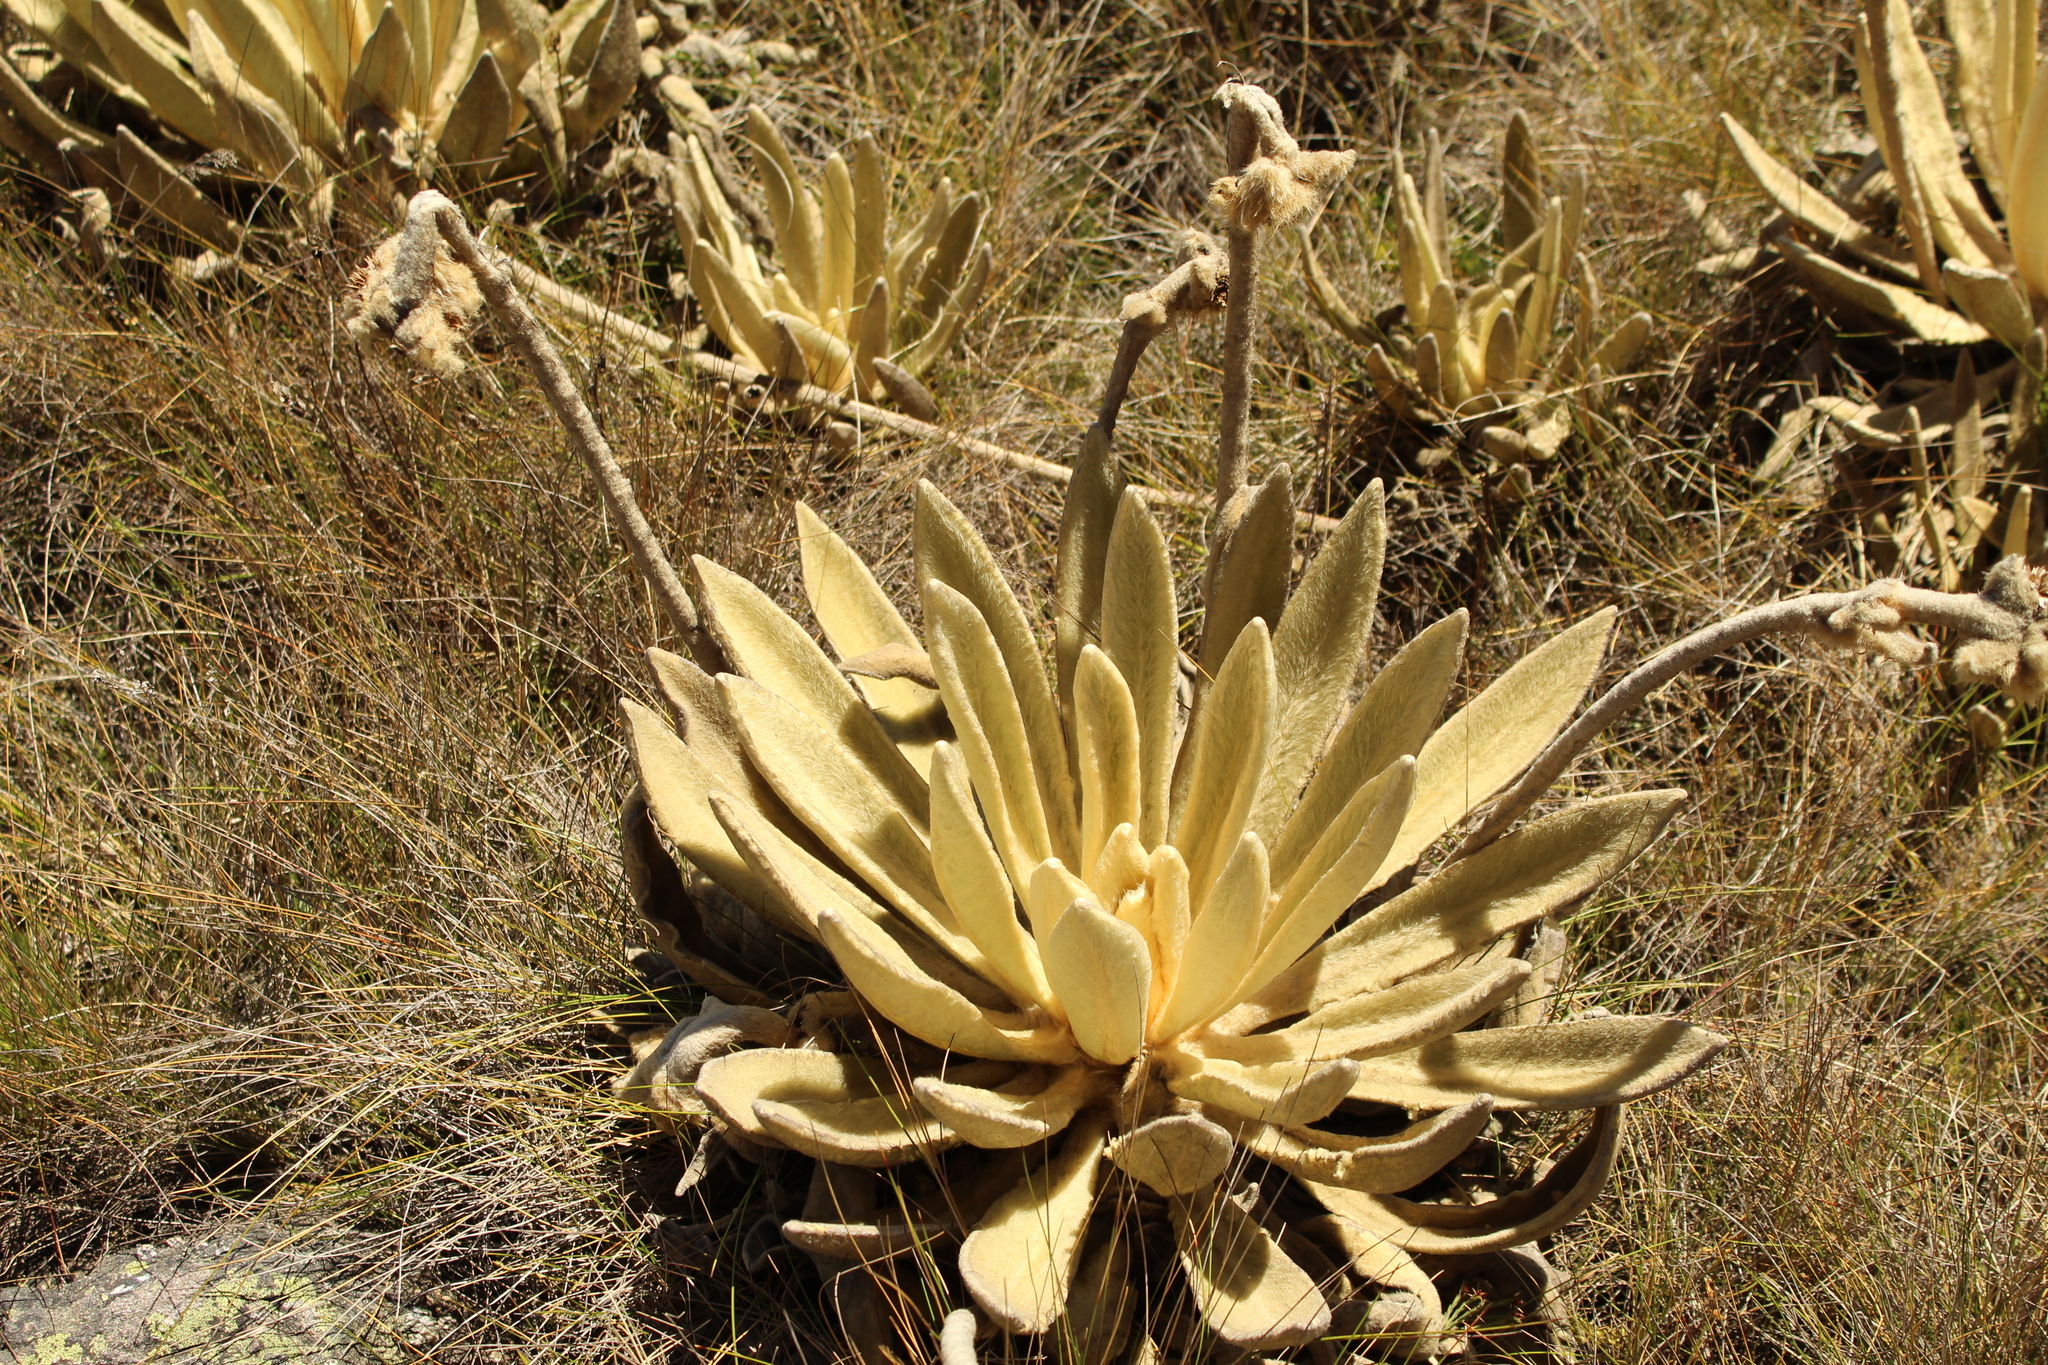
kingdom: Plantae
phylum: Tracheophyta
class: Magnoliopsida
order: Asterales
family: Asteraceae
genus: Espeletia
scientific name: Espeletia congestiflora
